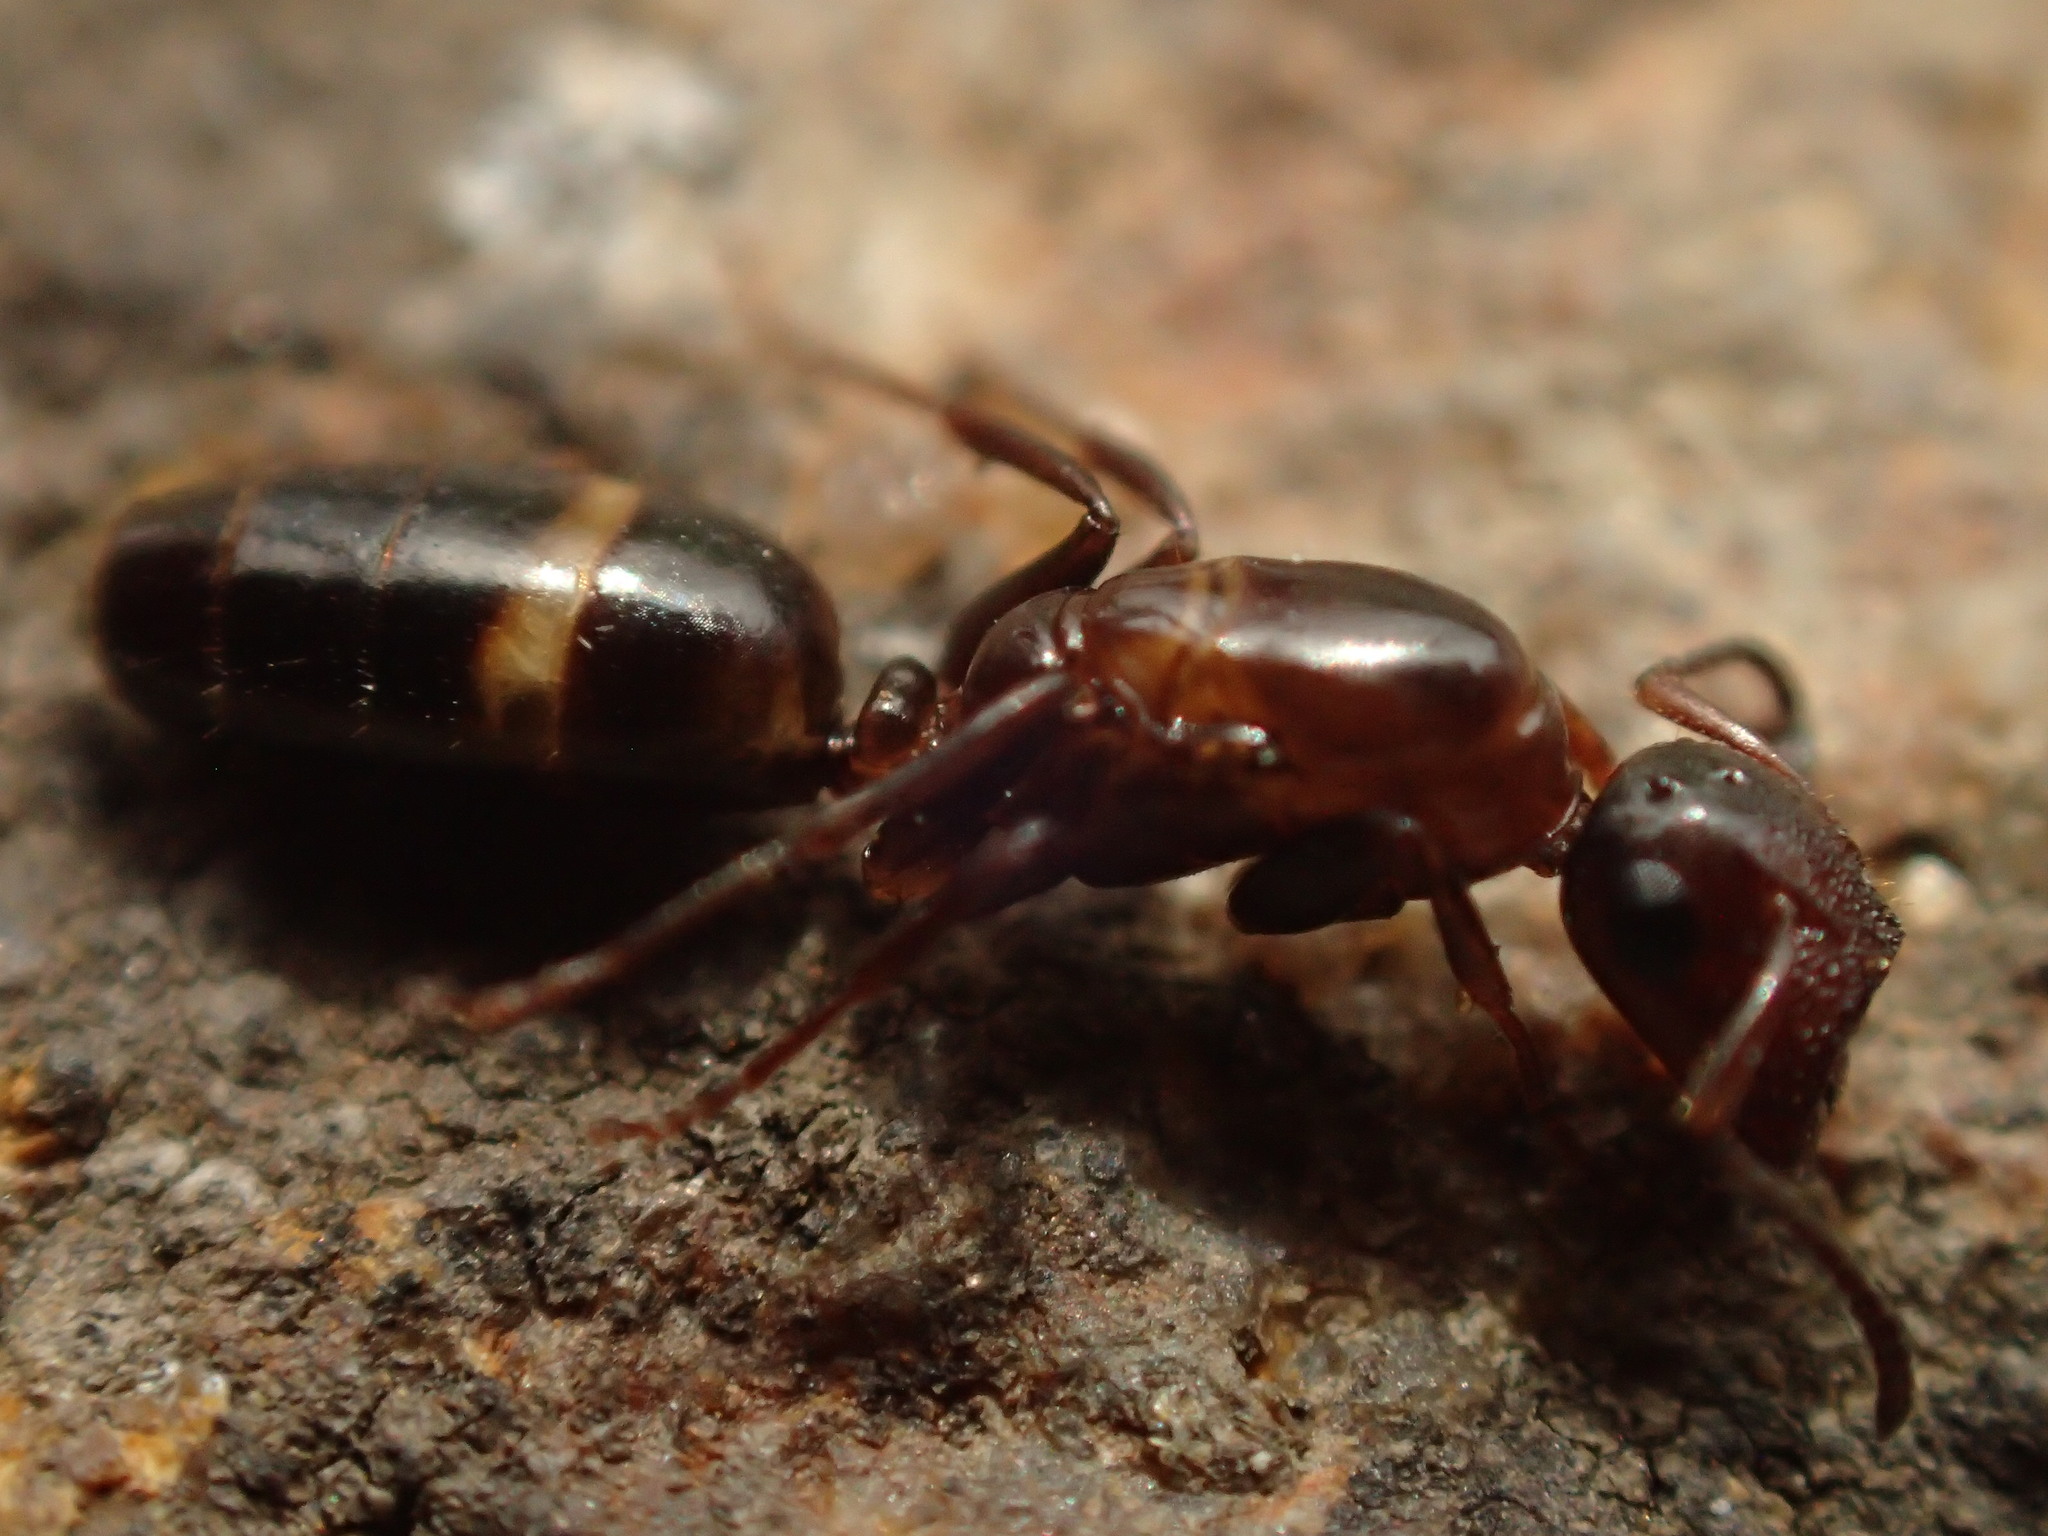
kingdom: Animalia
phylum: Arthropoda
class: Insecta
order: Hymenoptera
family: Formicidae
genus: Camponotus
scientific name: Camponotus truncatus
